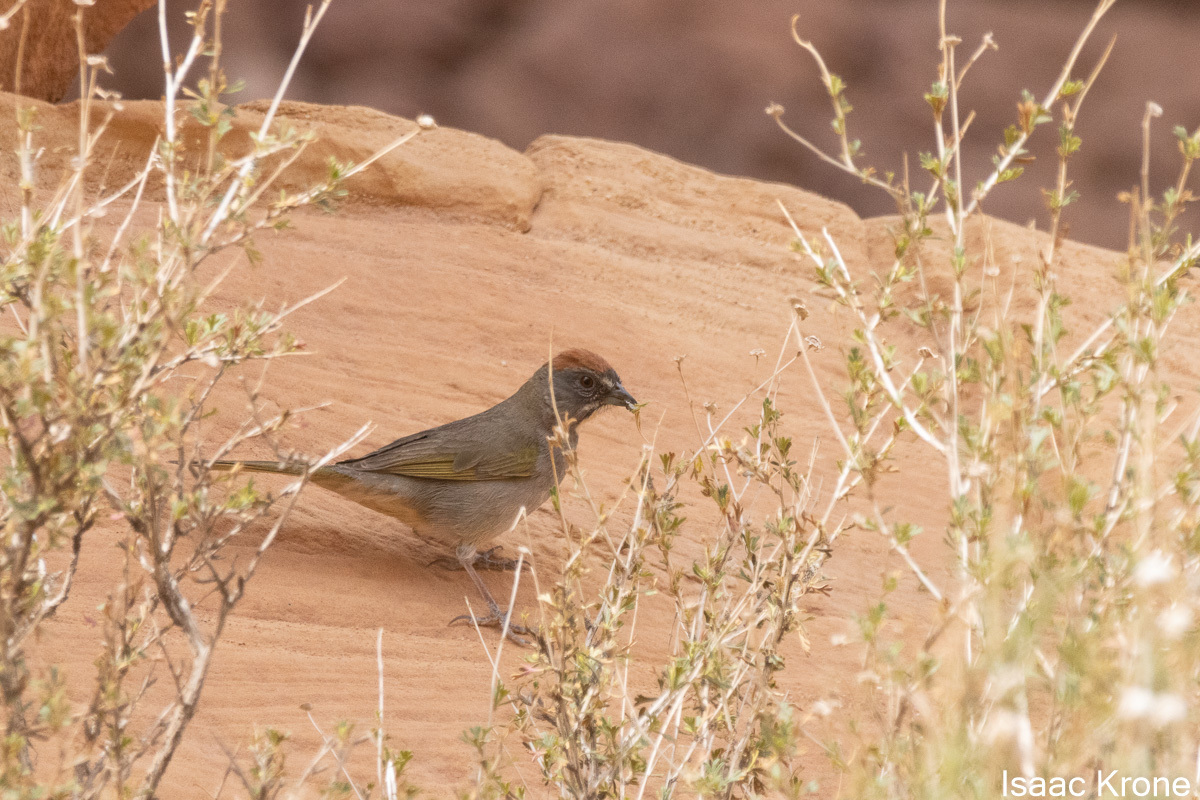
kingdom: Animalia
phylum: Chordata
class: Aves
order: Passeriformes
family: Passerellidae
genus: Pipilo
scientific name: Pipilo chlorurus
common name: Green-tailed towhee
